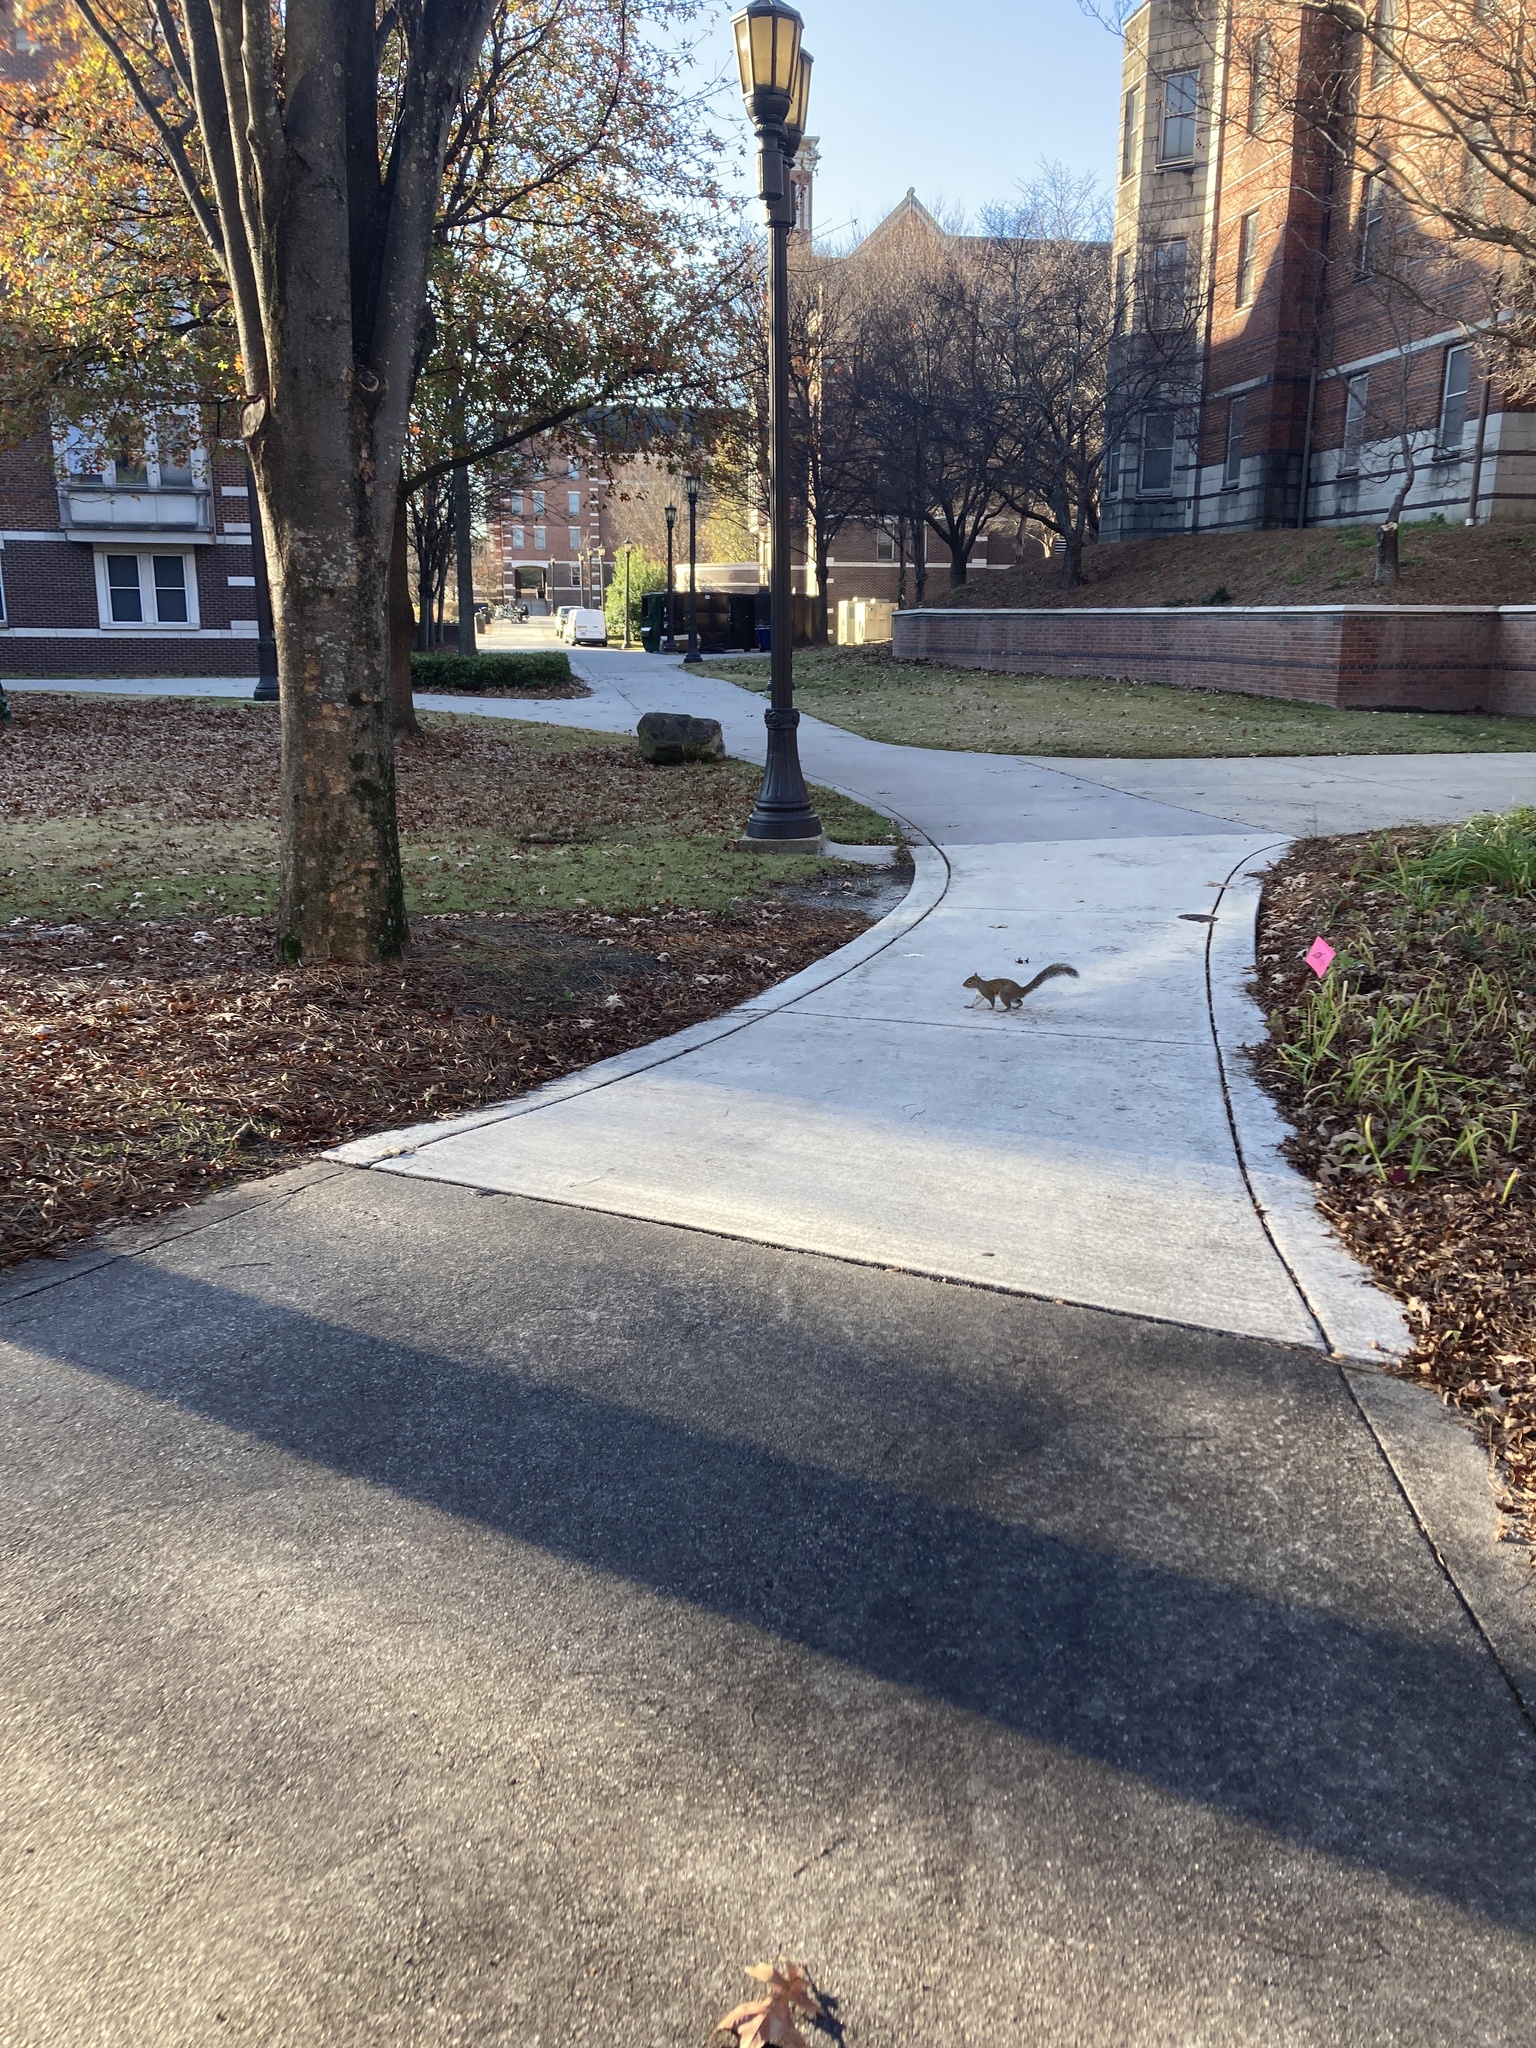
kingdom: Animalia
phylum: Chordata
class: Mammalia
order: Rodentia
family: Sciuridae
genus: Sciurus
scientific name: Sciurus carolinensis
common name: Eastern gray squirrel
